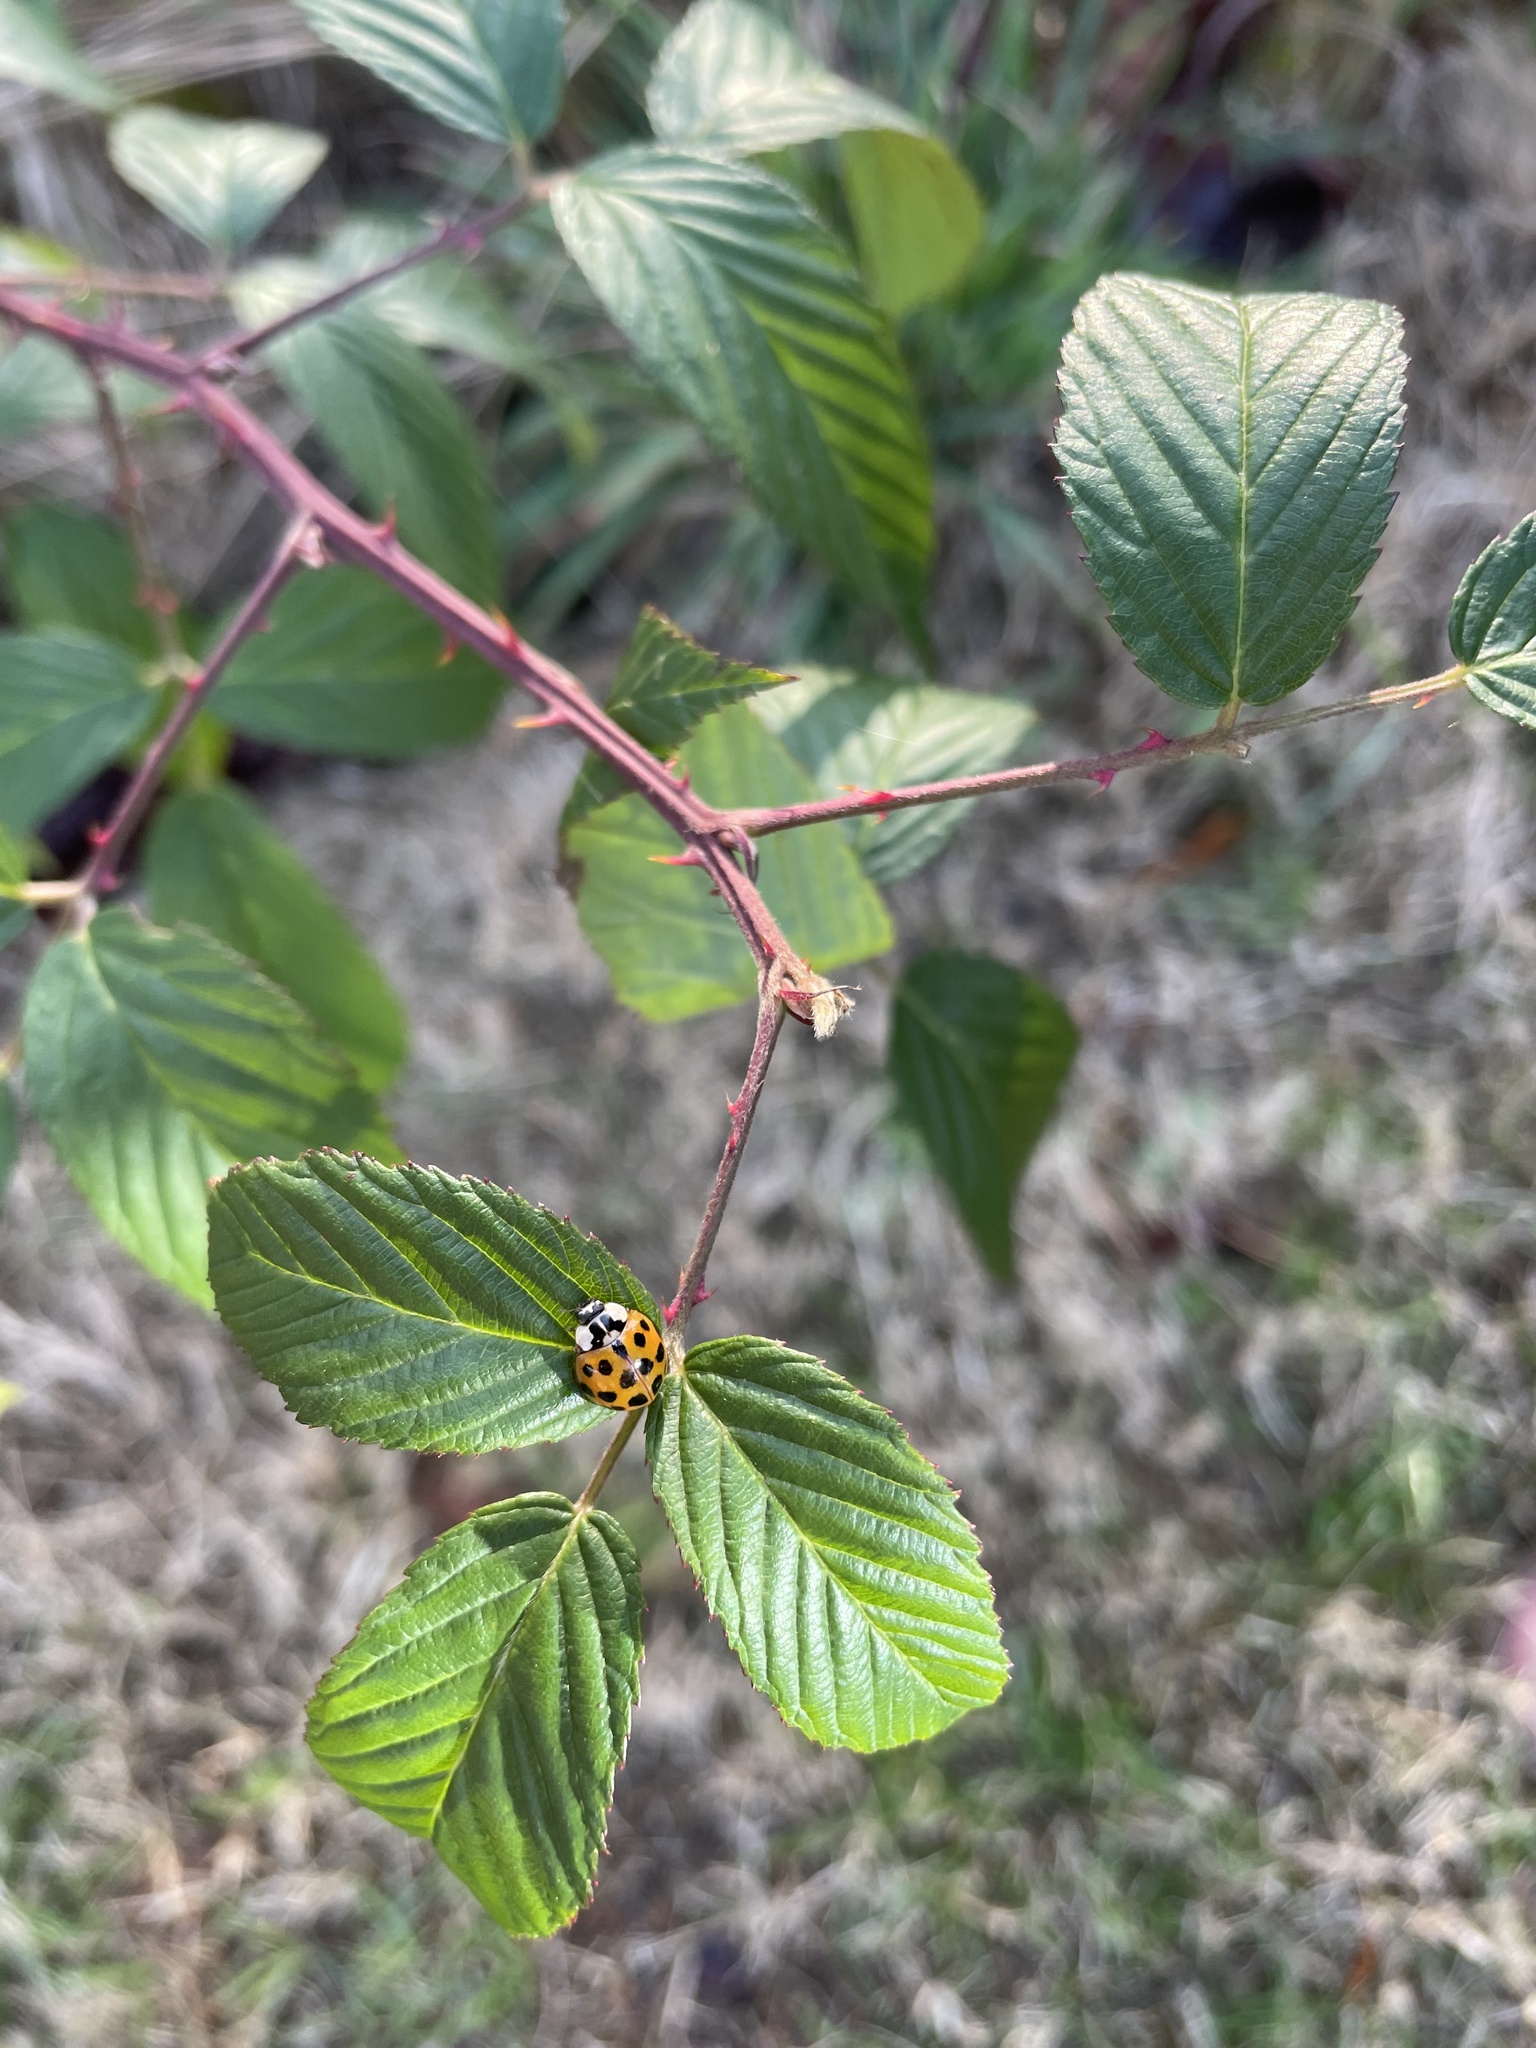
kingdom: Animalia
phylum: Arthropoda
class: Insecta
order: Coleoptera
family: Coccinellidae
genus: Harmonia
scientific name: Harmonia axyridis
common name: Harlequin ladybird
